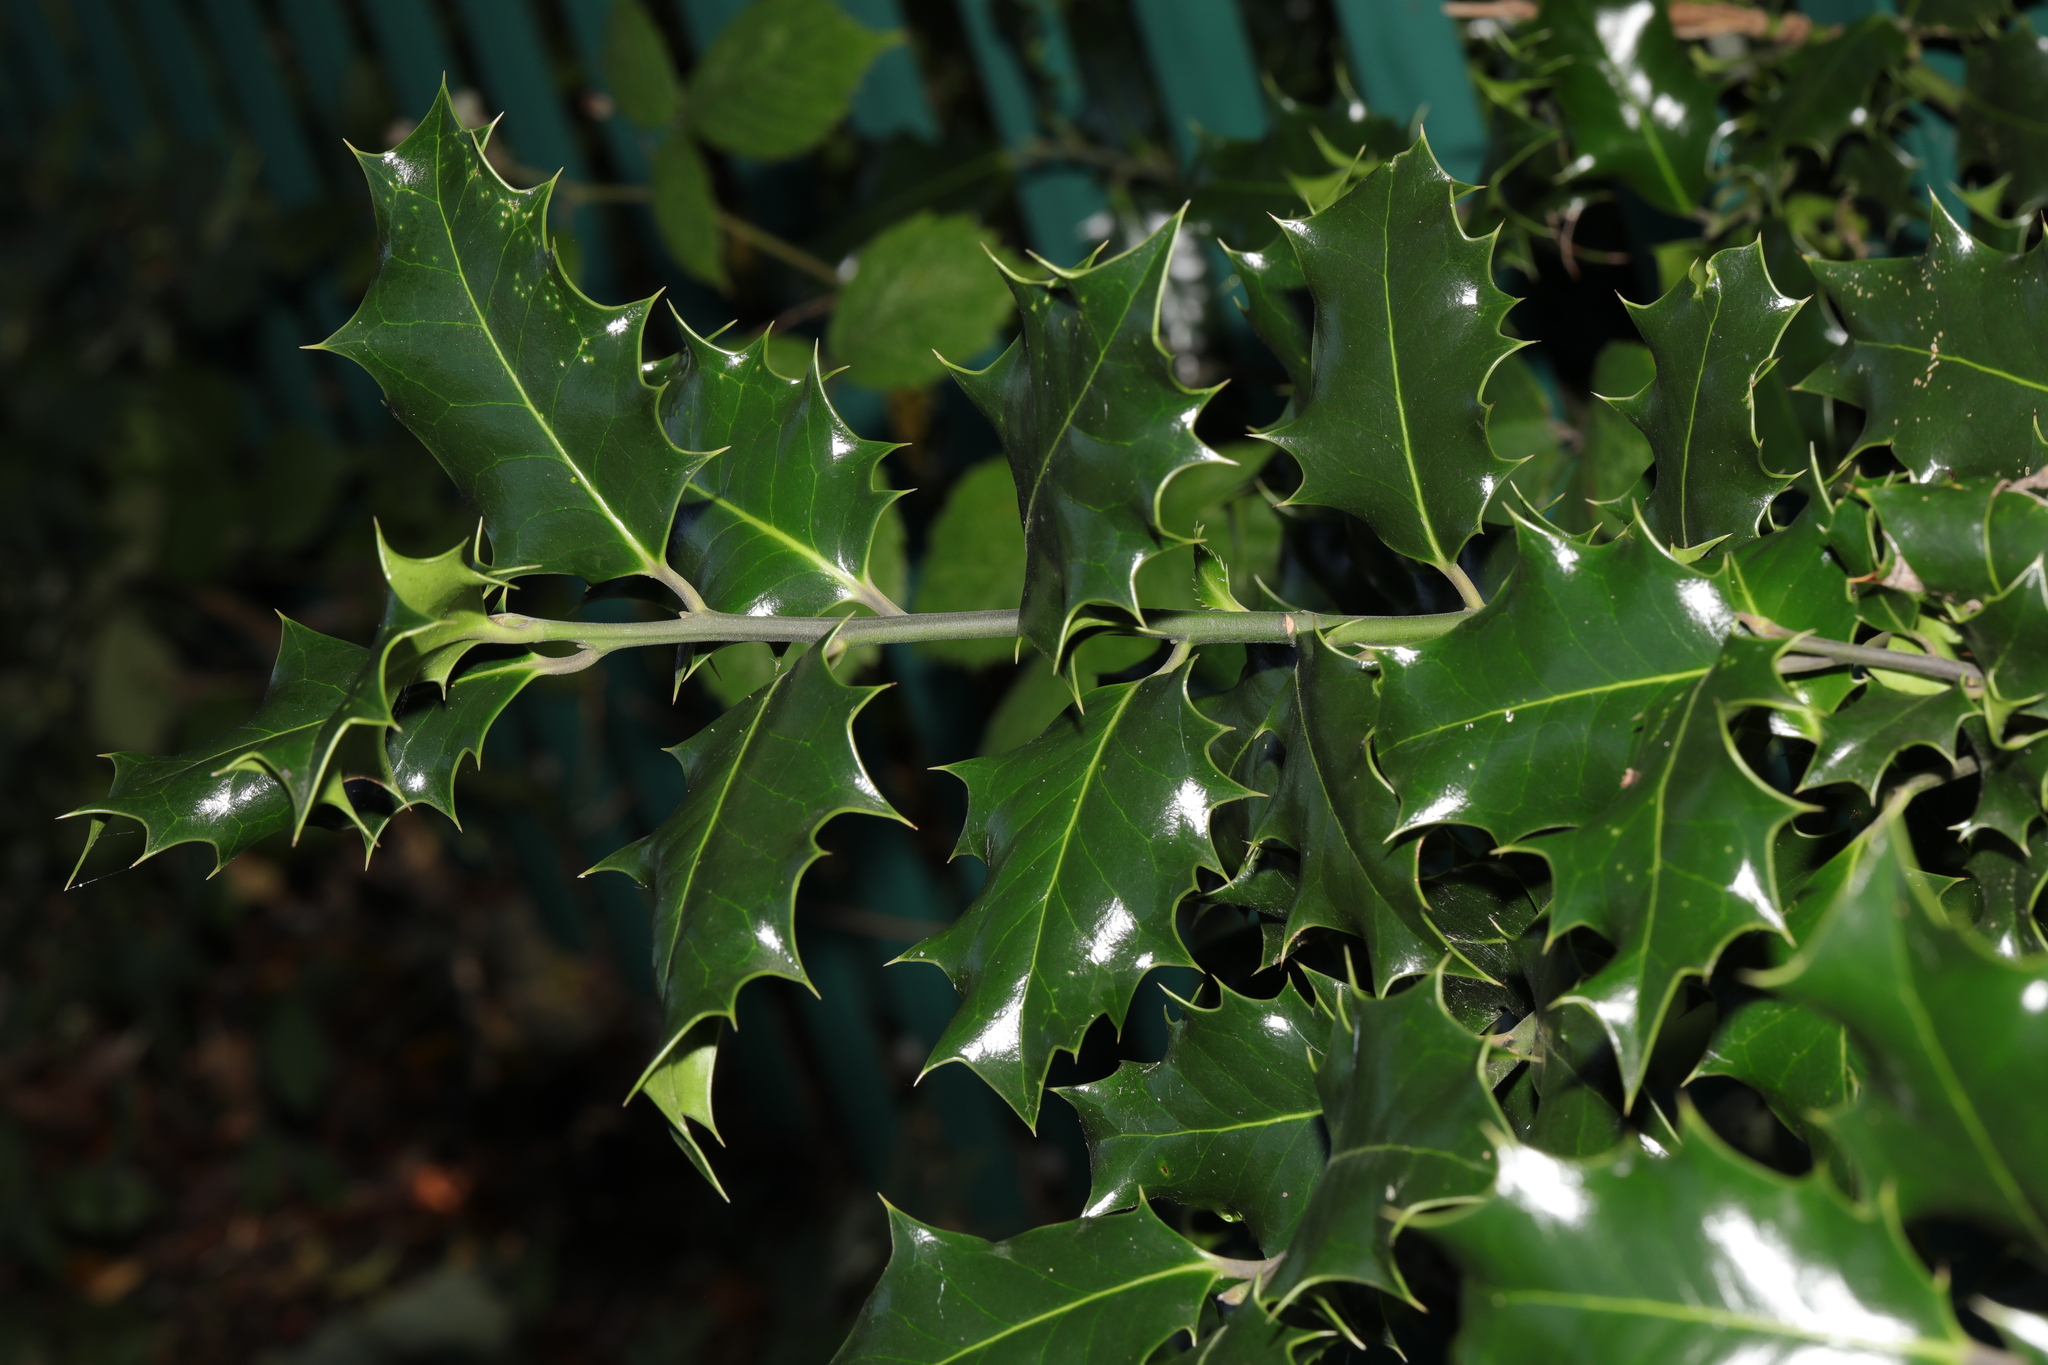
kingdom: Plantae
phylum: Tracheophyta
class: Magnoliopsida
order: Aquifoliales
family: Aquifoliaceae
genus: Ilex
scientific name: Ilex aquifolium
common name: English holly
